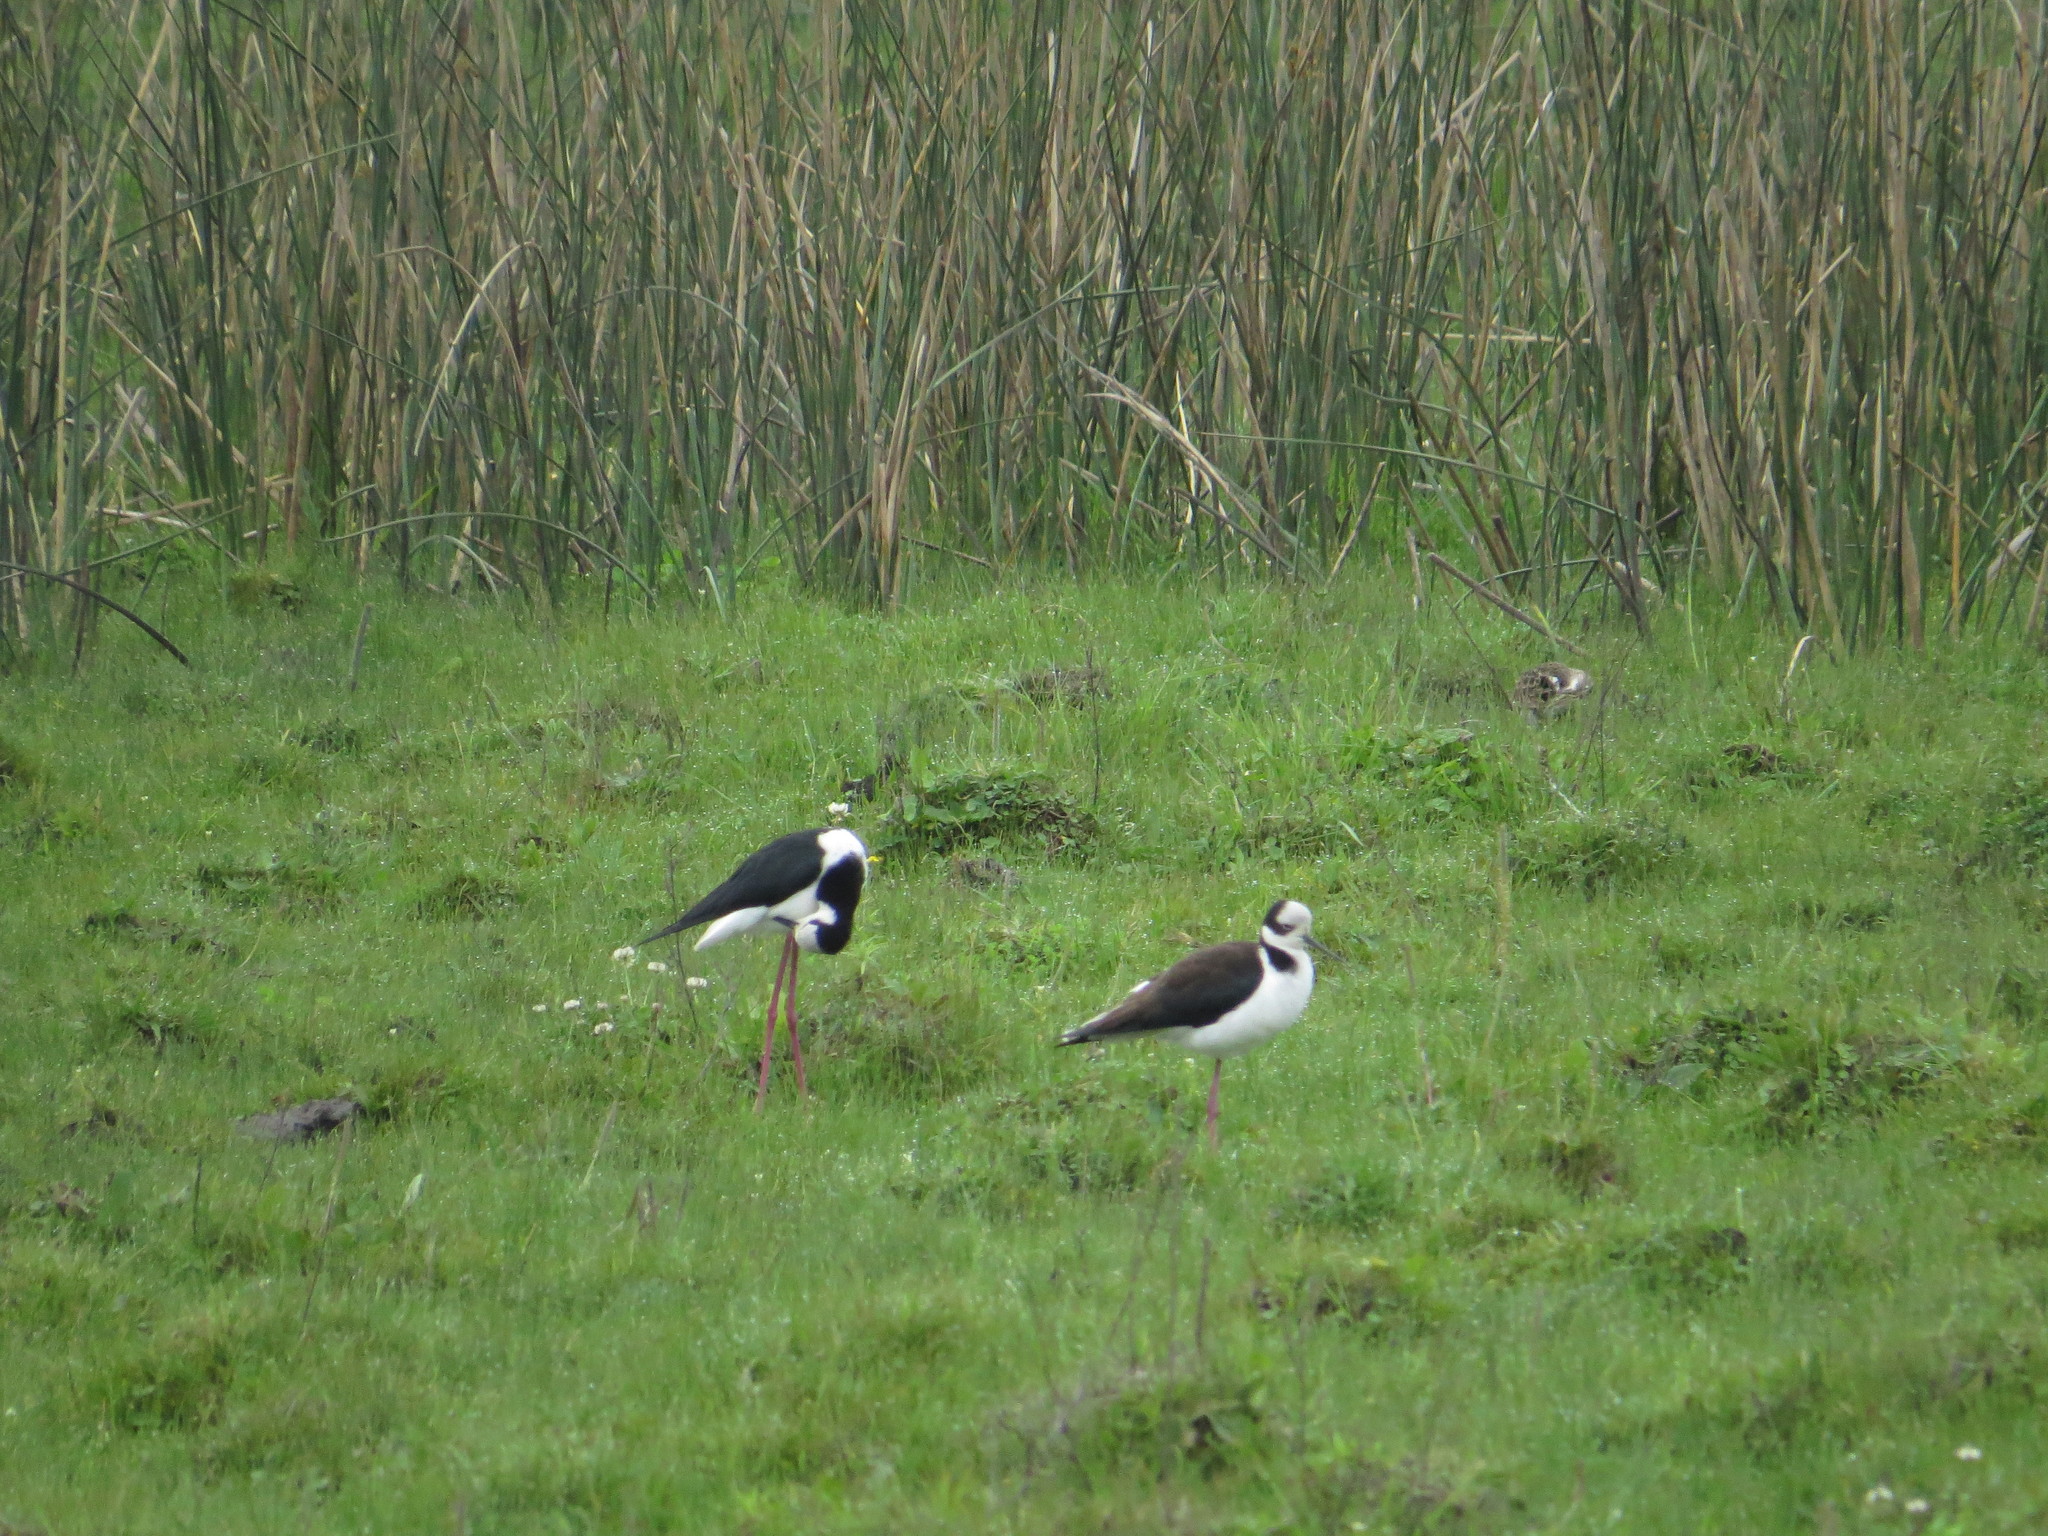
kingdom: Animalia
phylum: Chordata
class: Aves
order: Charadriiformes
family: Recurvirostridae
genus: Himantopus
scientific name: Himantopus mexicanus
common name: Black-necked stilt
